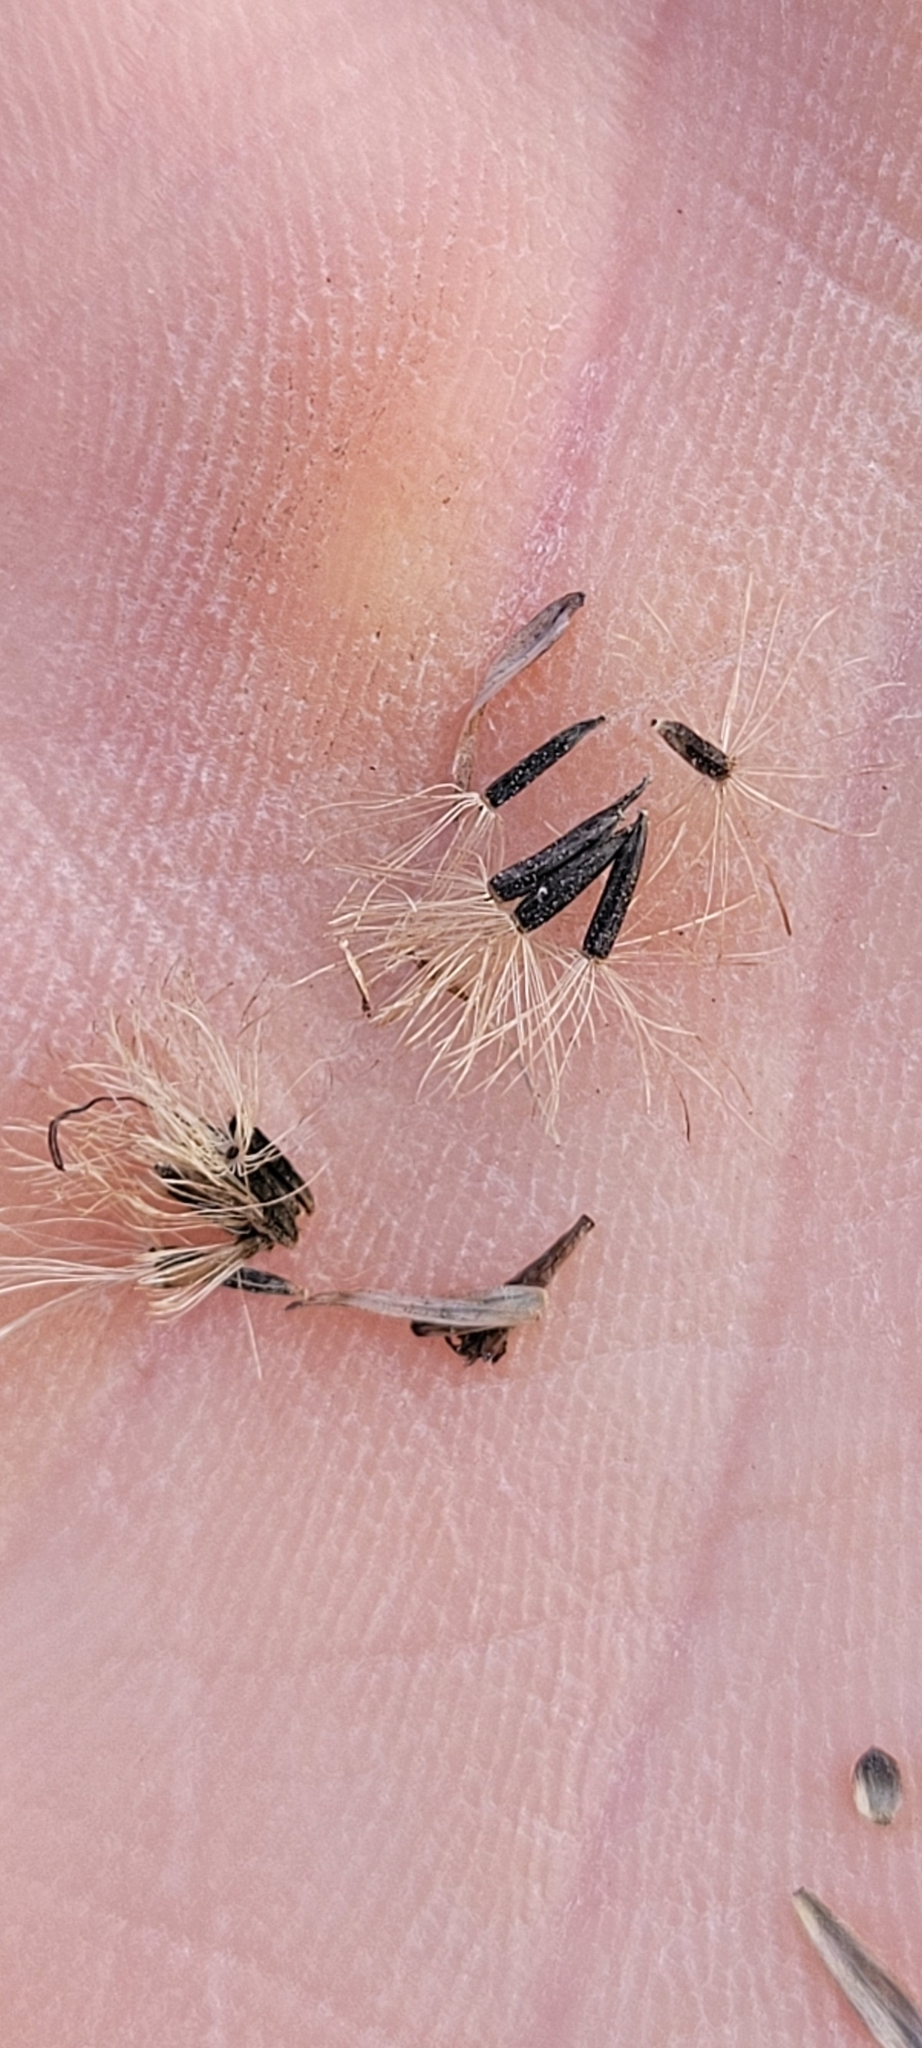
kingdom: Plantae
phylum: Tracheophyta
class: Magnoliopsida
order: Asterales
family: Asteraceae
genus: Eutrochium
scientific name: Eutrochium fistulosum
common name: Trumpetweed
